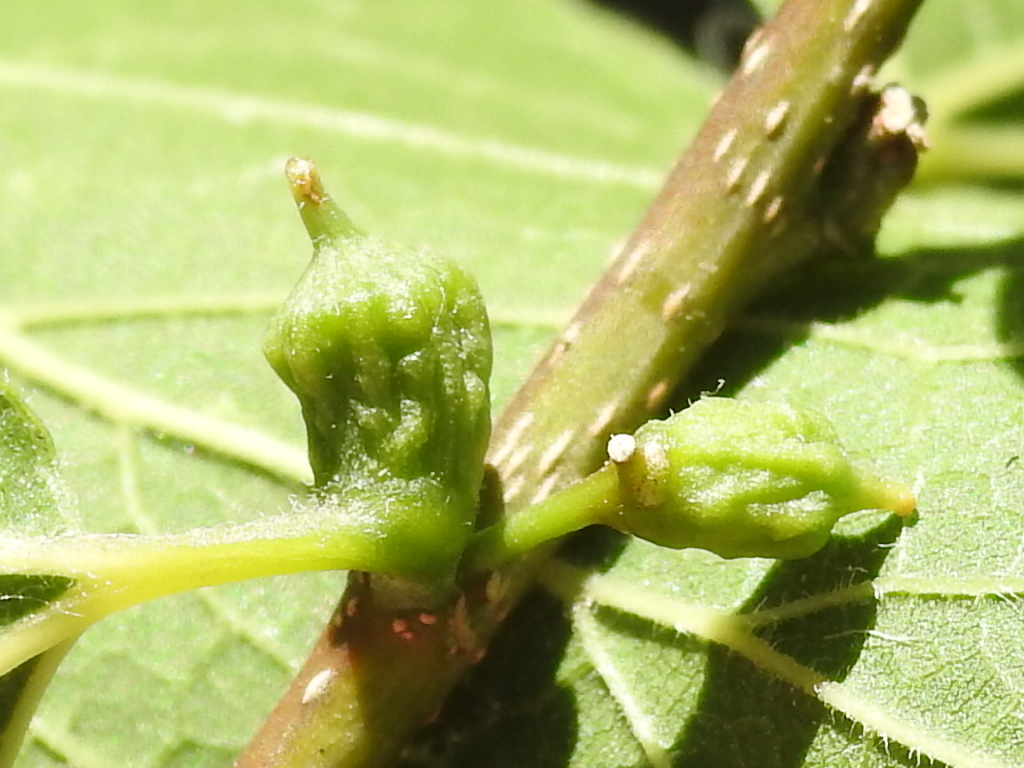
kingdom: Animalia
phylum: Arthropoda
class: Insecta
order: Diptera
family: Cecidomyiidae
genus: Celticecis
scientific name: Celticecis ramicola
